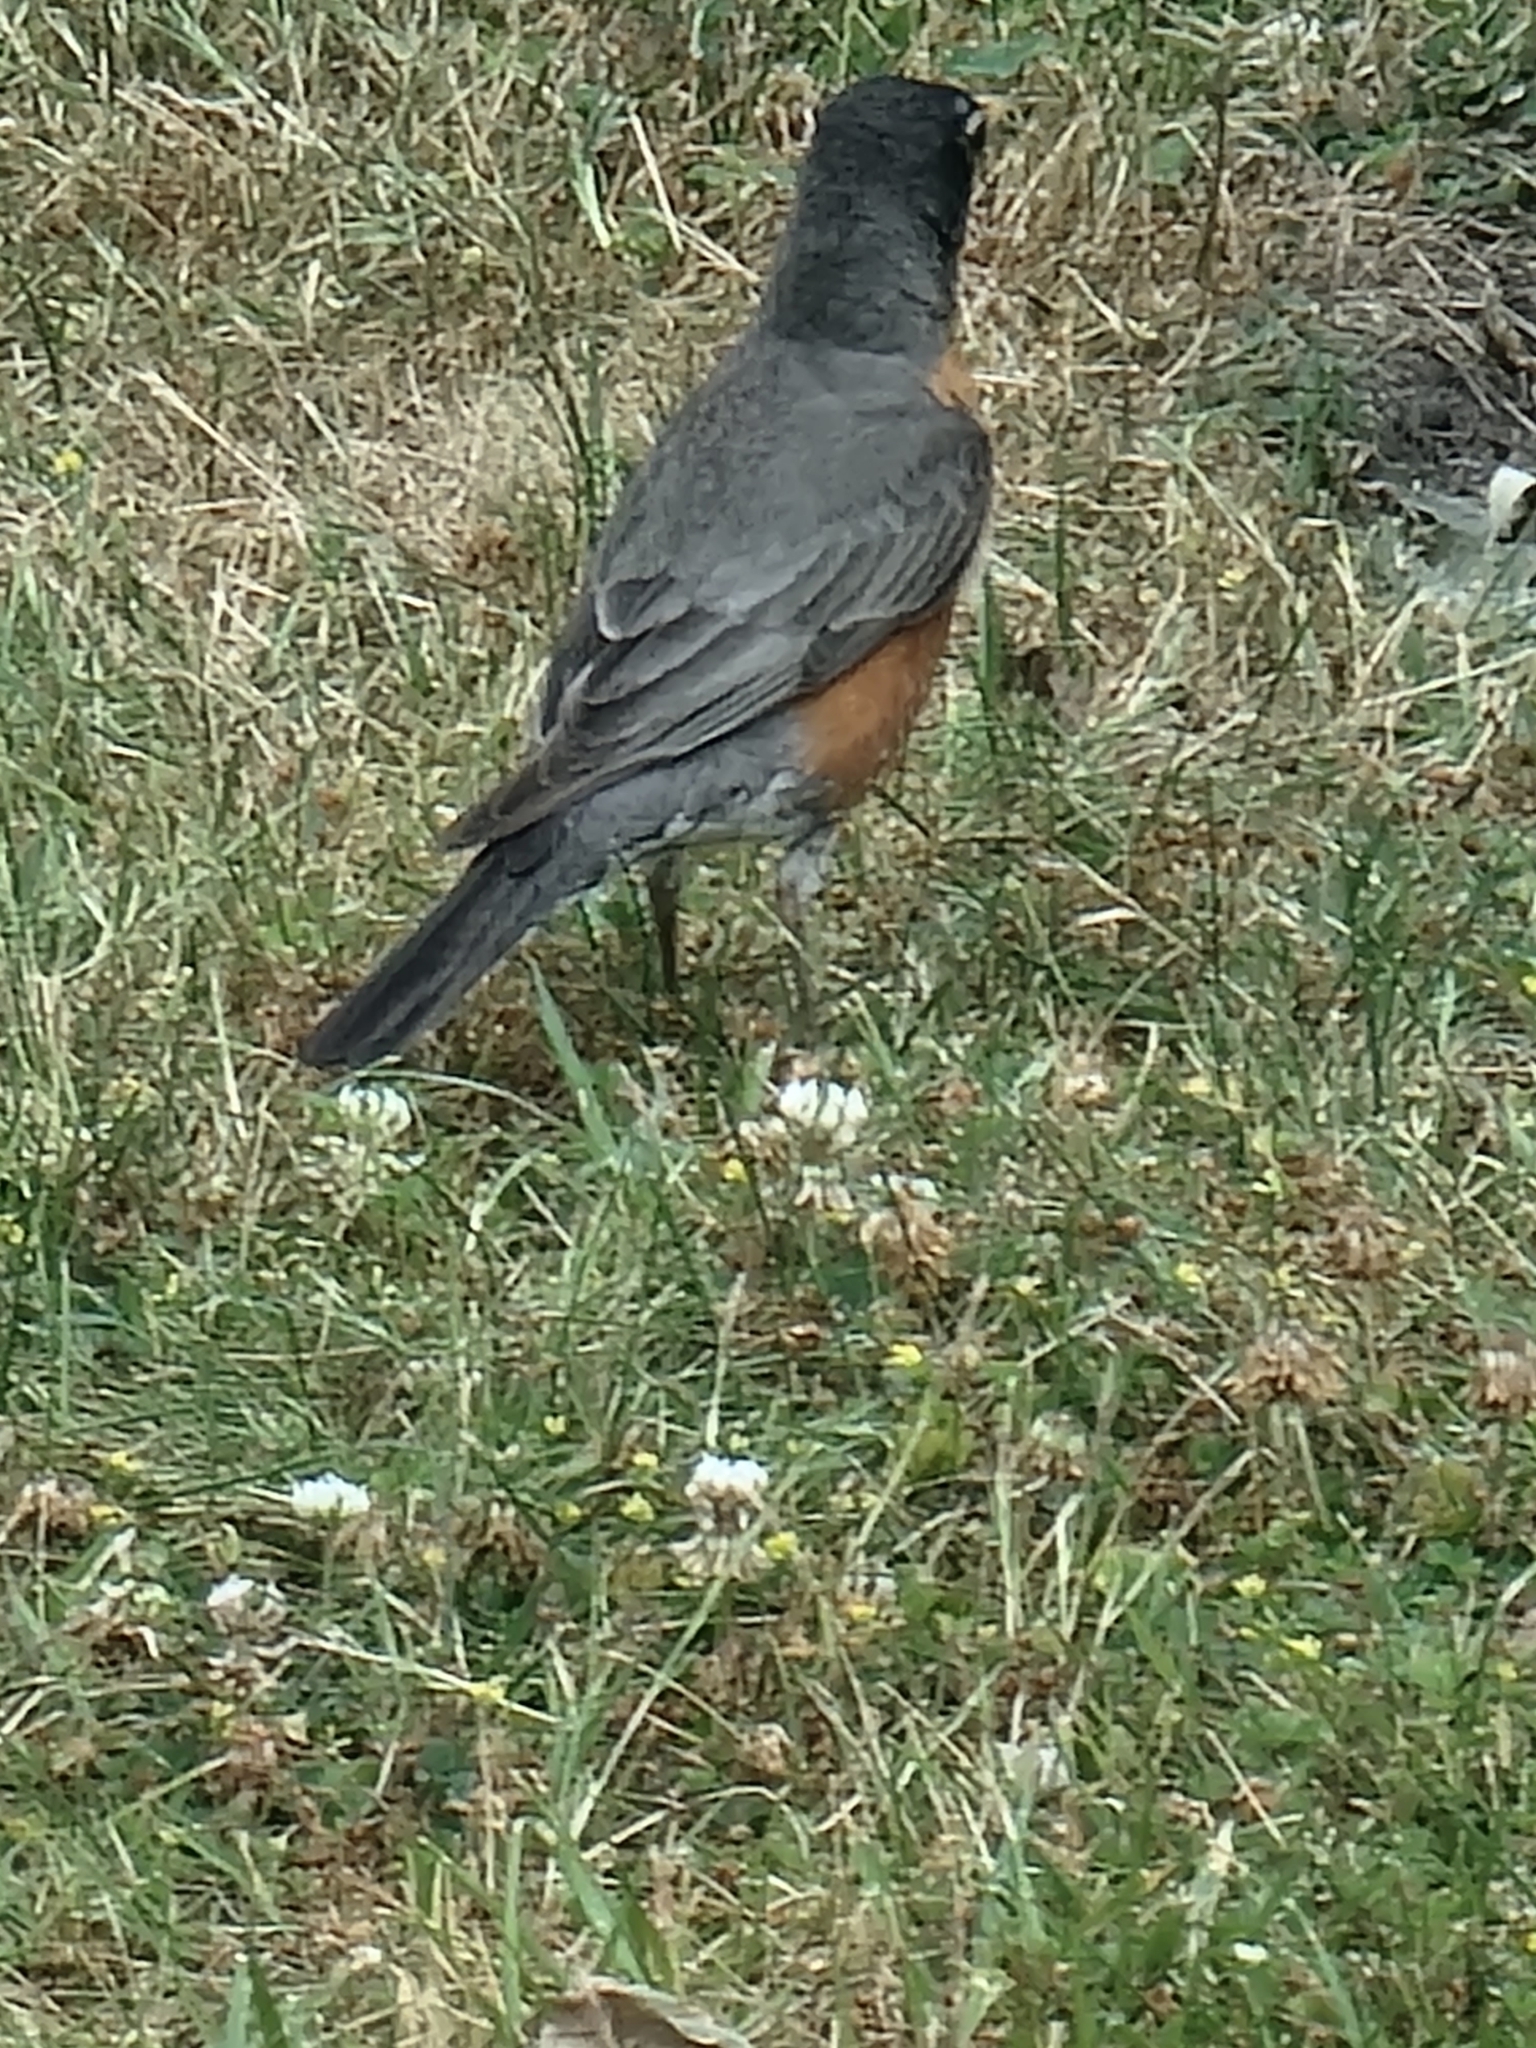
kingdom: Animalia
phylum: Chordata
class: Aves
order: Passeriformes
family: Turdidae
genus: Turdus
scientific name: Turdus migratorius
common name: American robin
